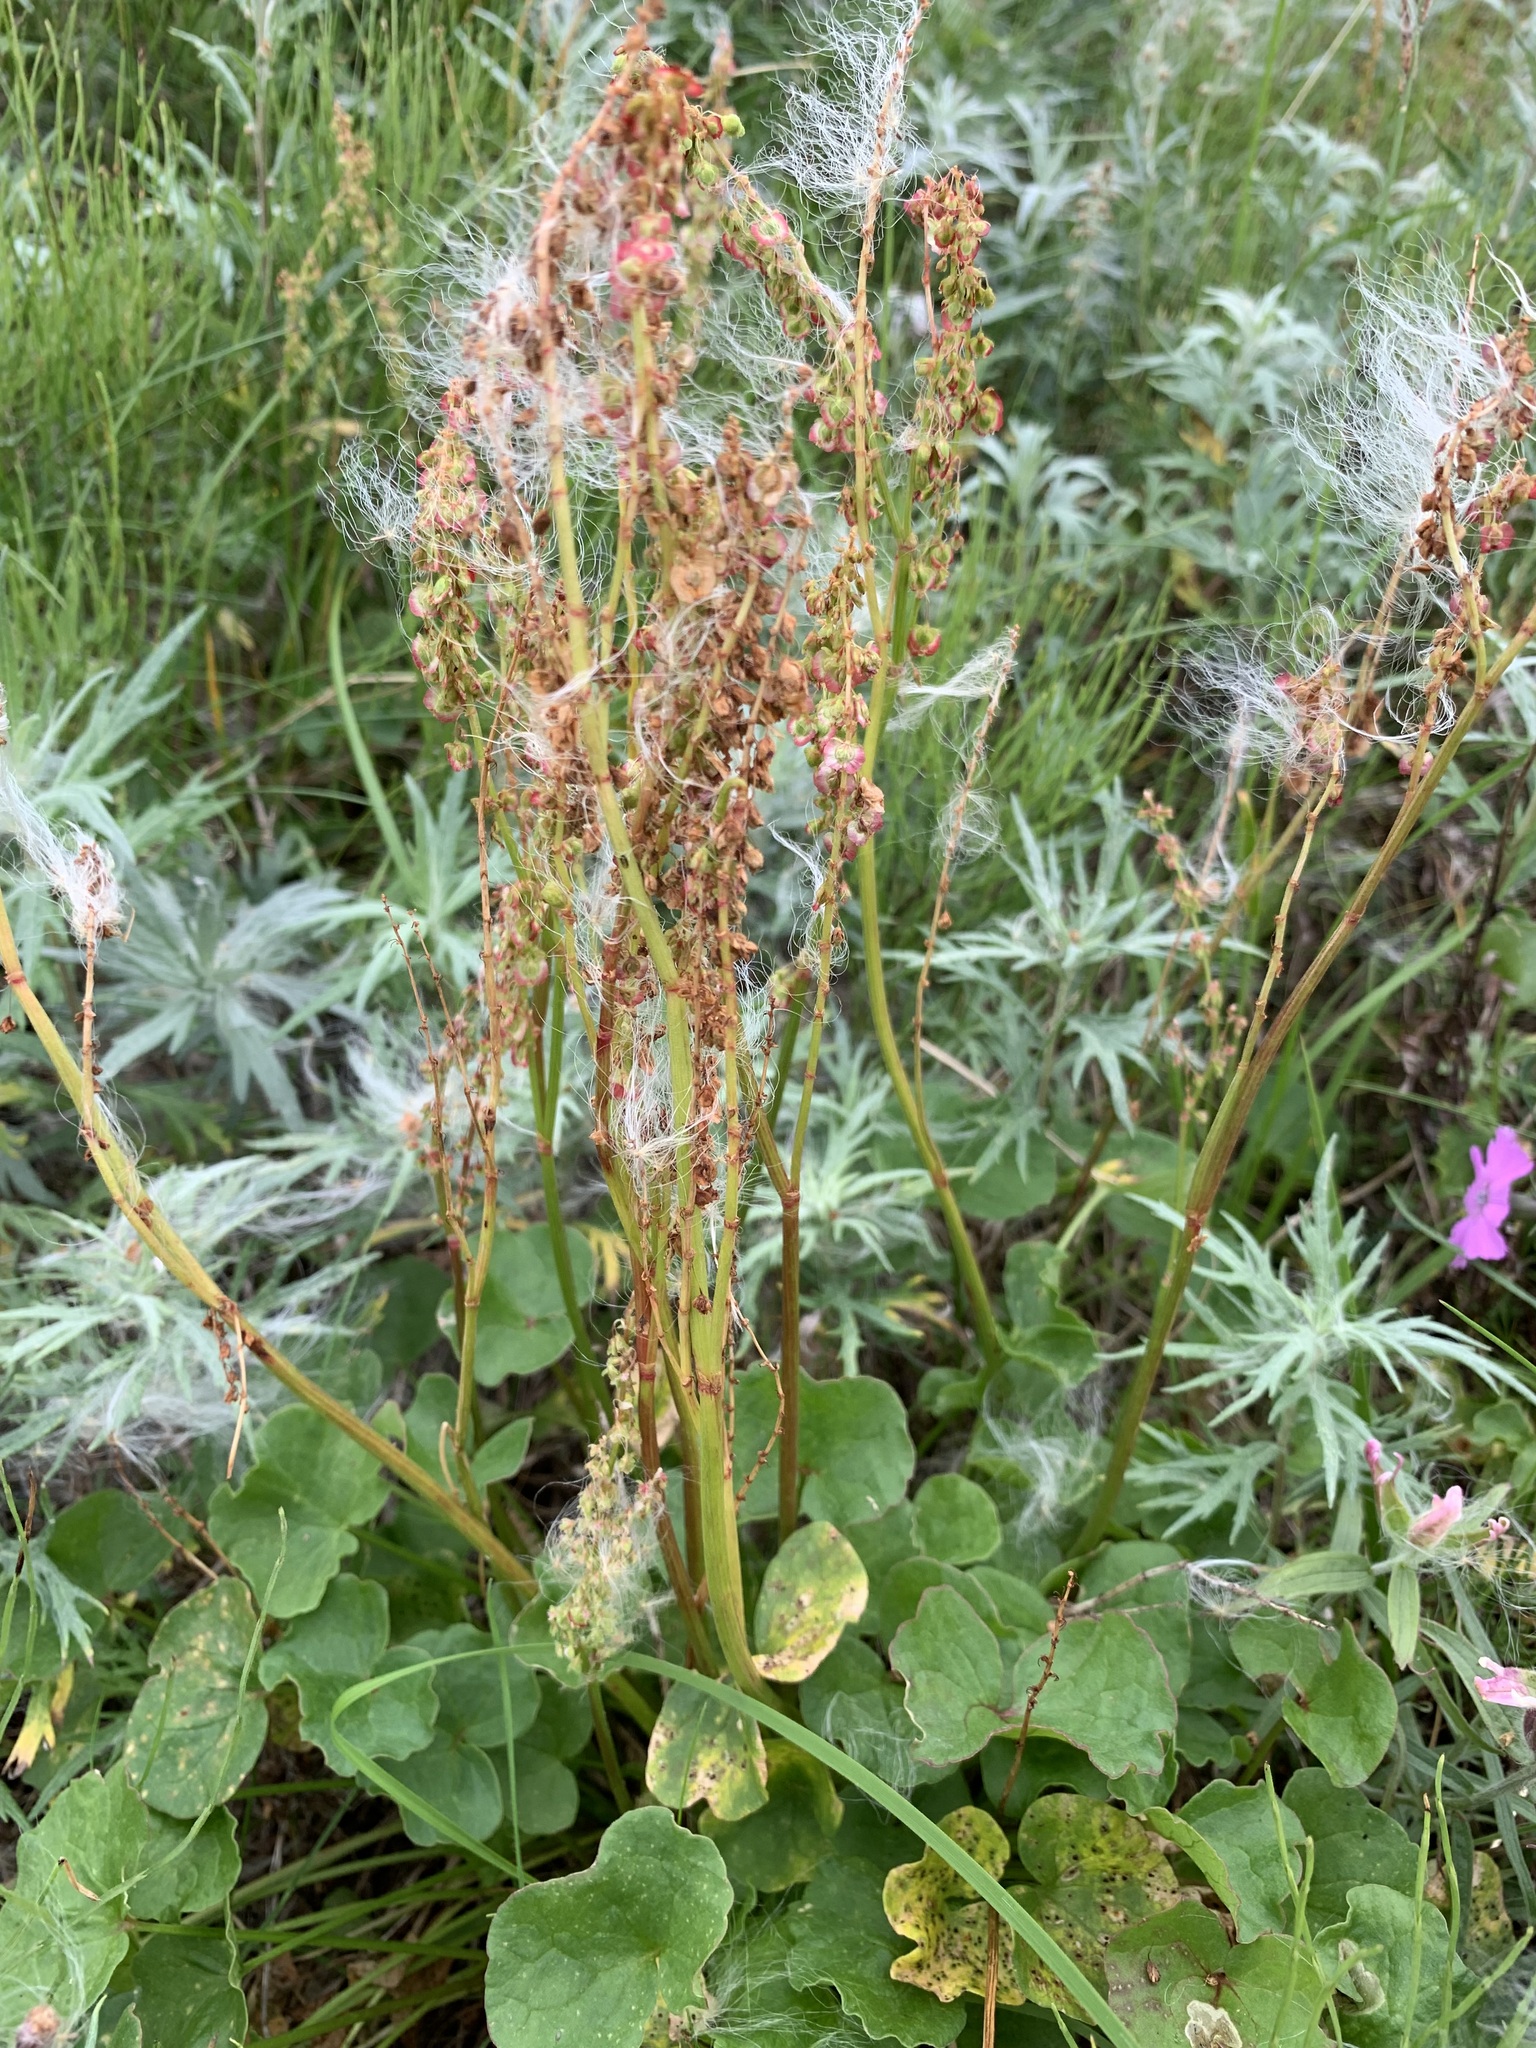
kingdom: Plantae
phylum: Tracheophyta
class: Magnoliopsida
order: Caryophyllales
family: Polygonaceae
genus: Oxyria
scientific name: Oxyria digyna
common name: Alpine mountain-sorrel
